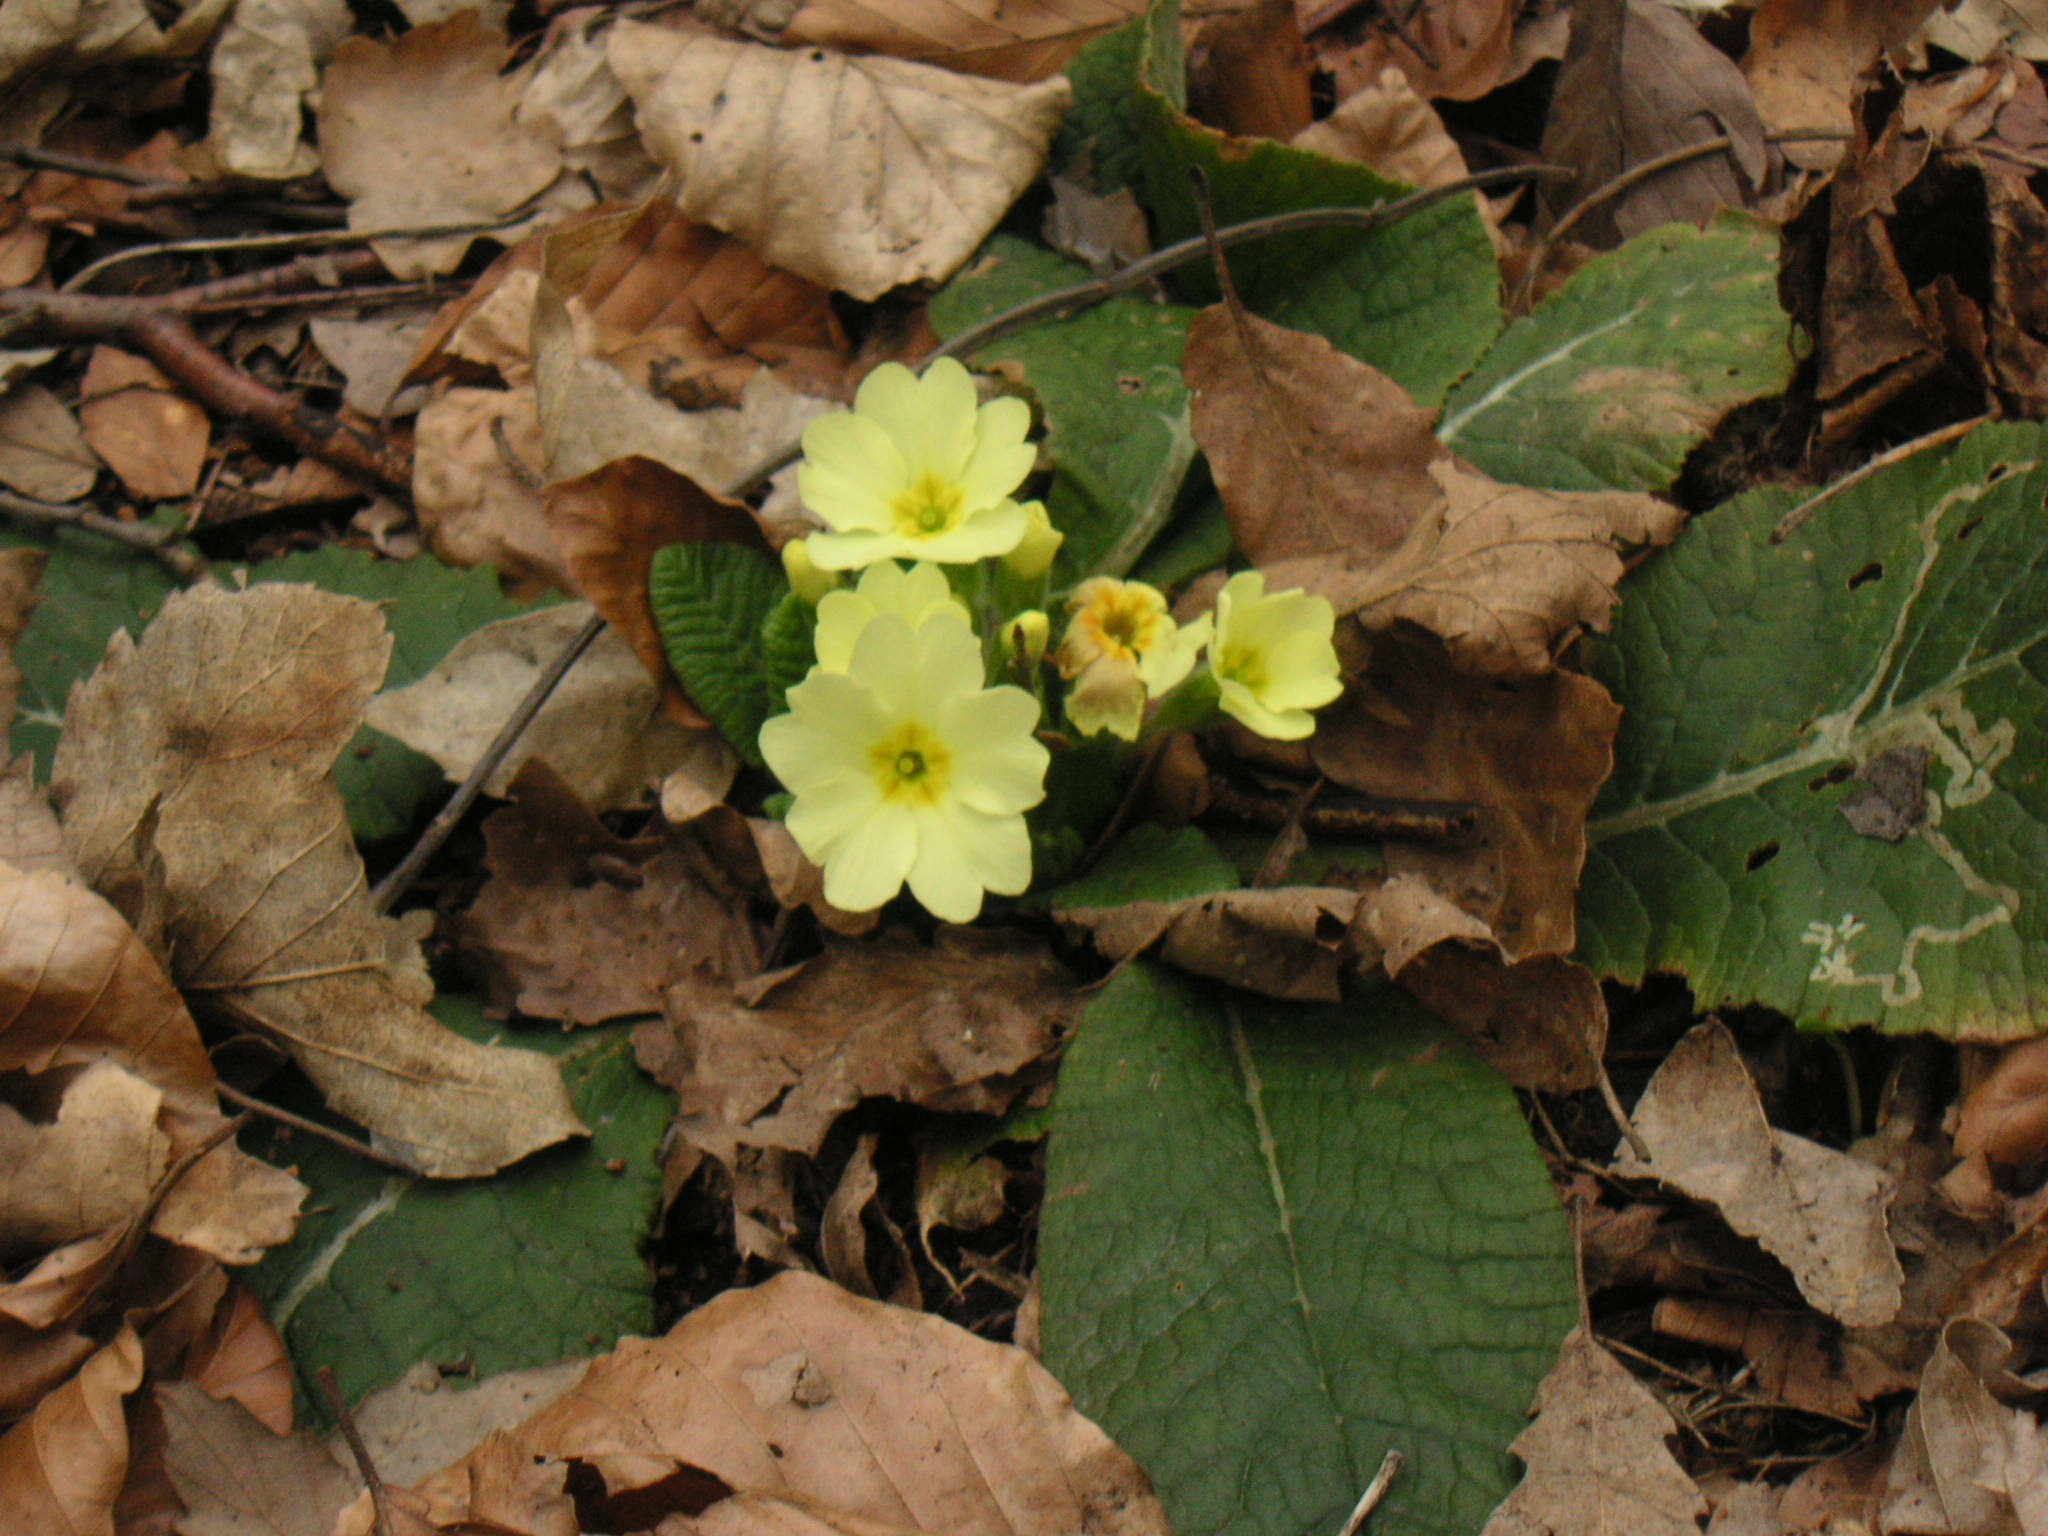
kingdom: Plantae
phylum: Tracheophyta
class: Magnoliopsida
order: Ericales
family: Primulaceae
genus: Primula
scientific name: Primula vulgaris
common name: Primrose
